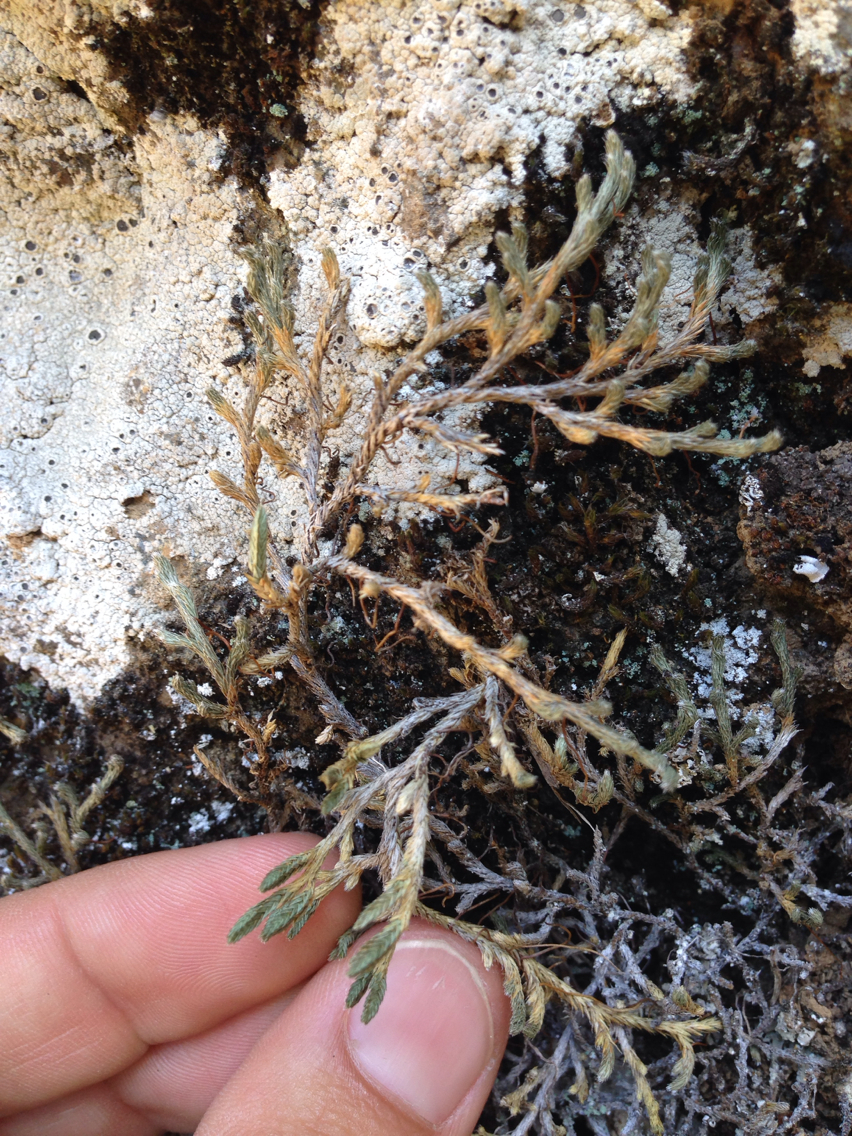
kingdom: Plantae
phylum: Tracheophyta
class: Lycopodiopsida
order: Selaginellales
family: Selaginellaceae
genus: Selaginella
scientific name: Selaginella wallacei
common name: Wallace's selaginella
